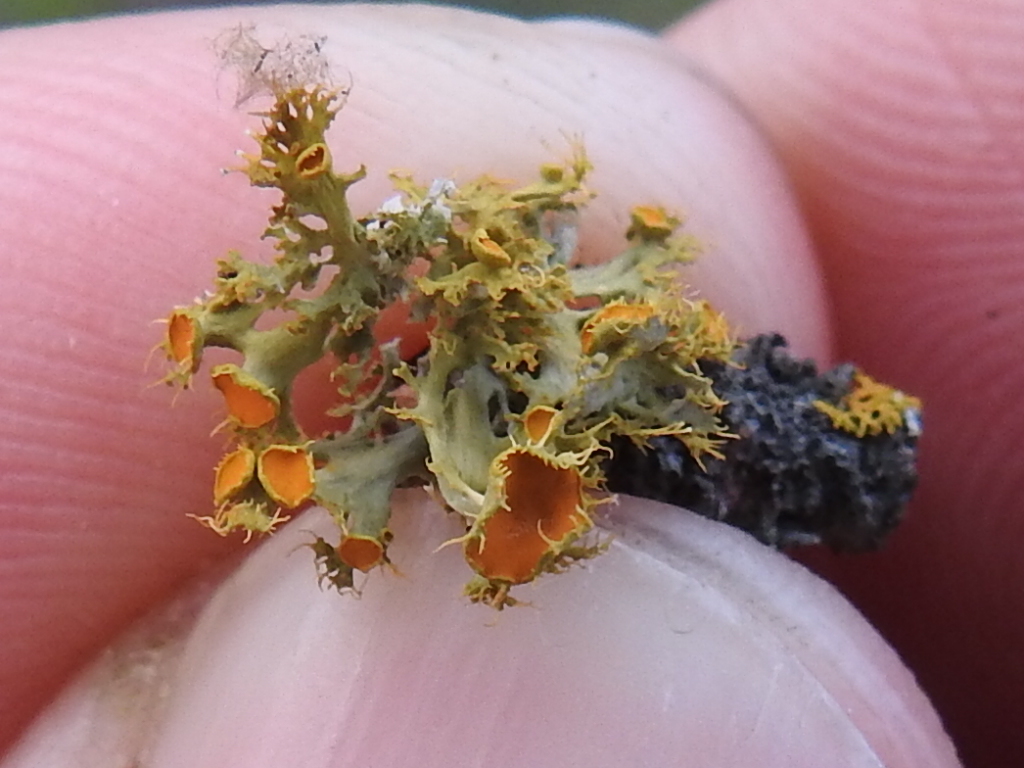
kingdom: Fungi
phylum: Ascomycota
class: Lecanoromycetes
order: Teloschistales
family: Teloschistaceae
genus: Niorma
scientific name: Niorma chrysophthalma
